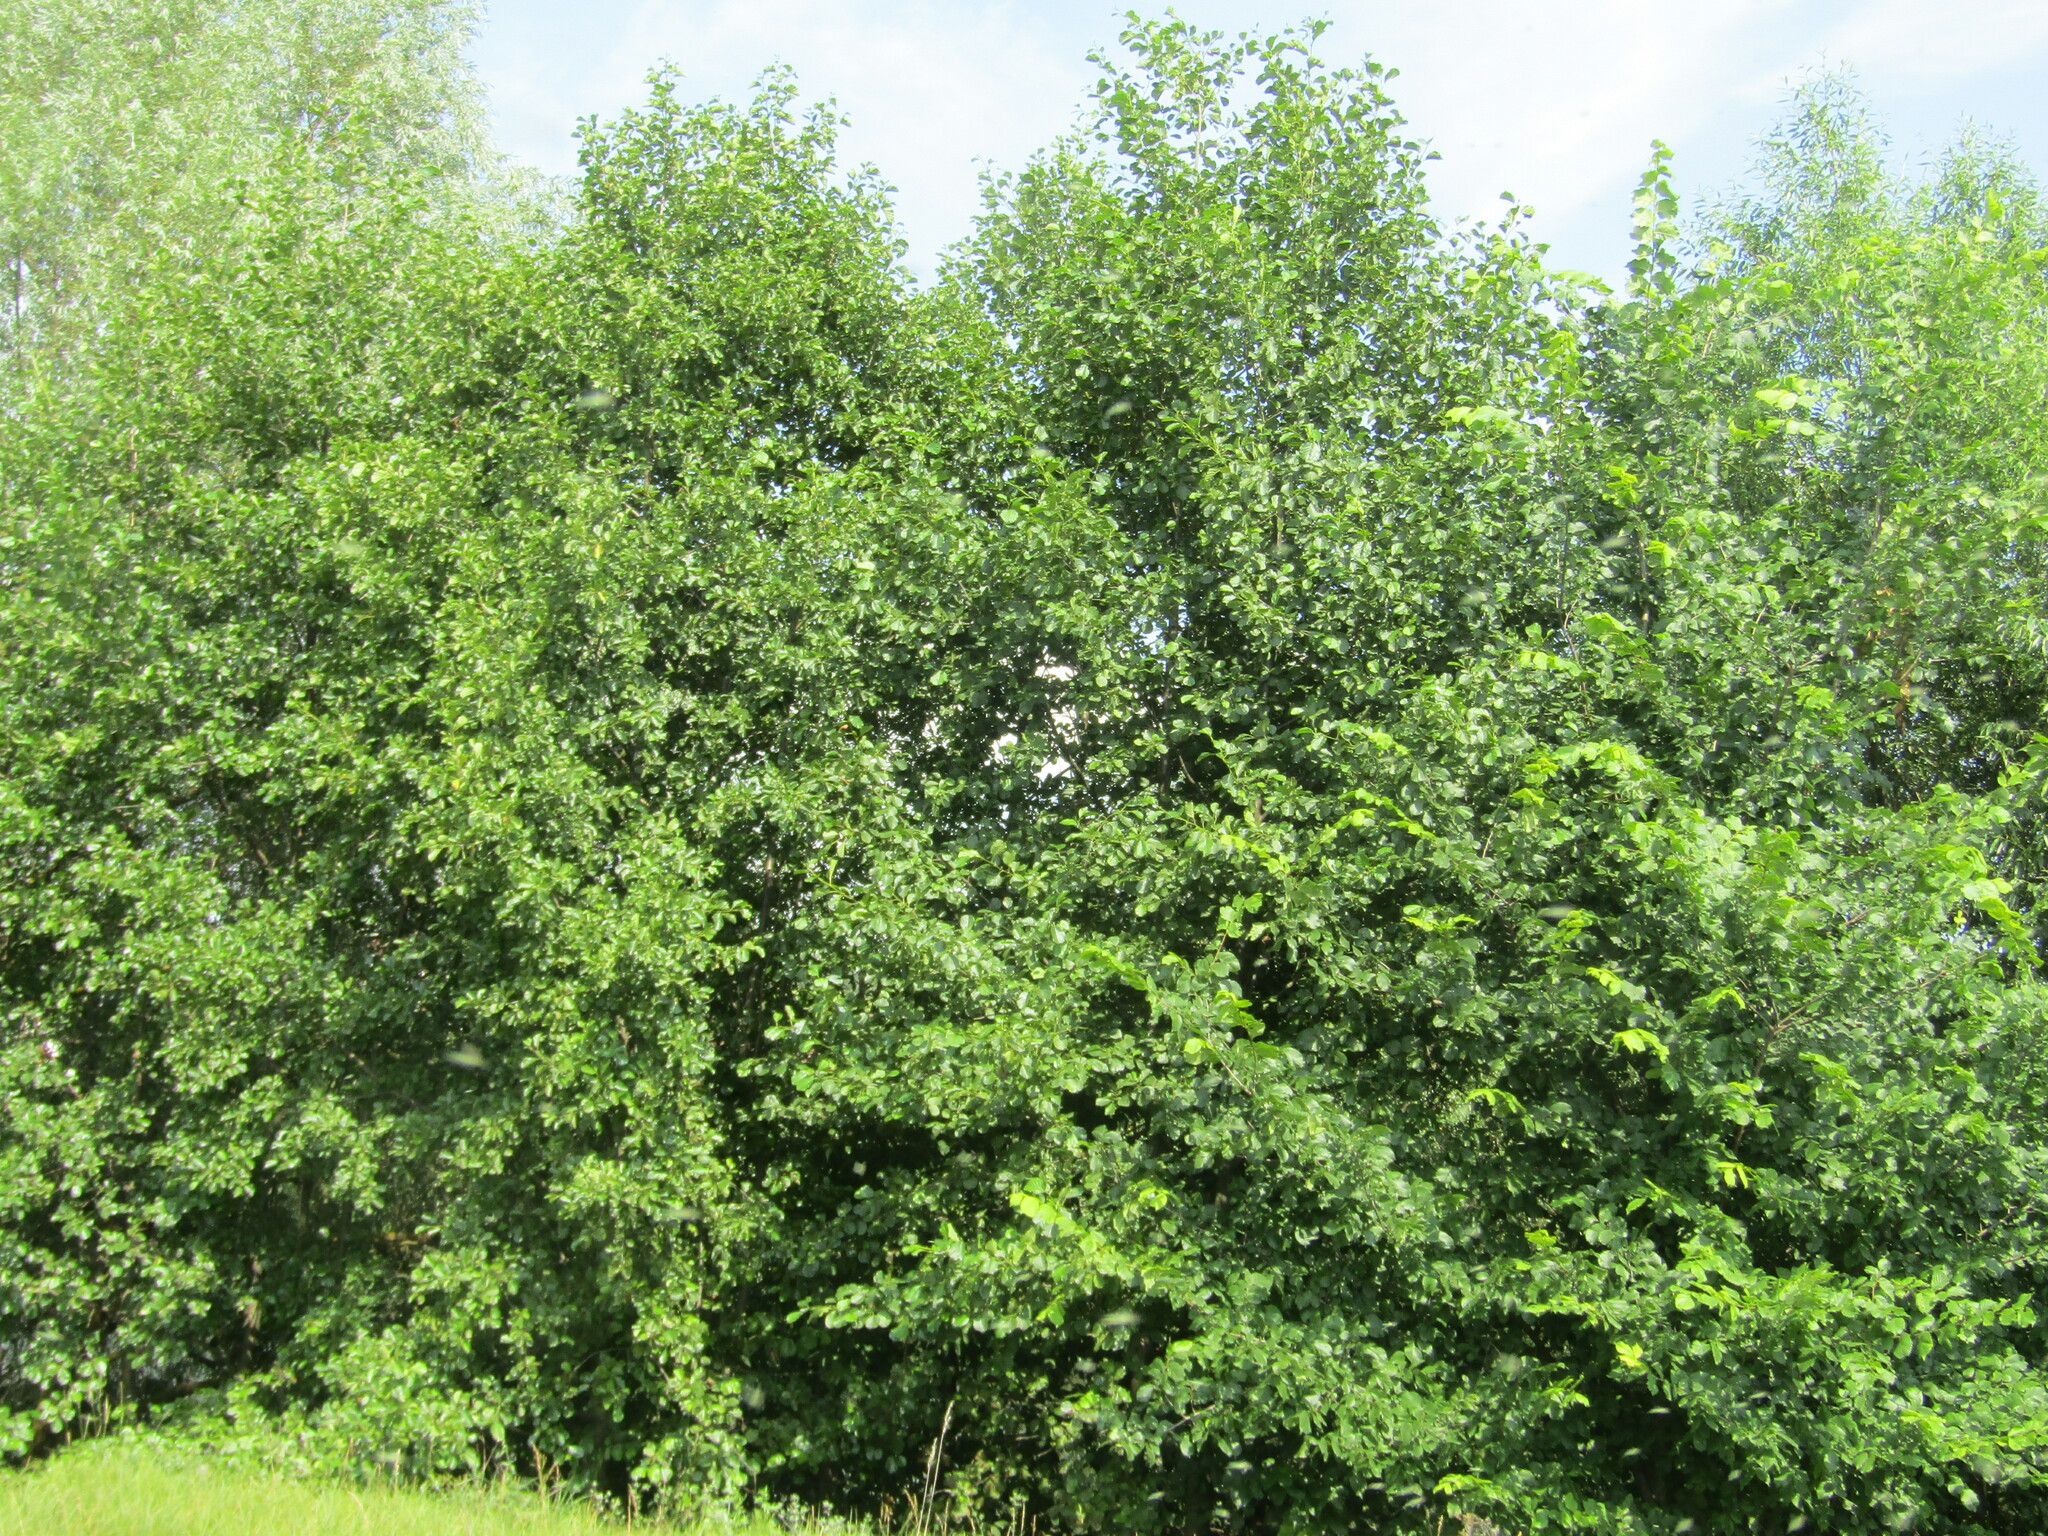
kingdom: Plantae
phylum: Tracheophyta
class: Magnoliopsida
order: Fagales
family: Betulaceae
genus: Alnus
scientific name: Alnus glutinosa
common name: Black alder
